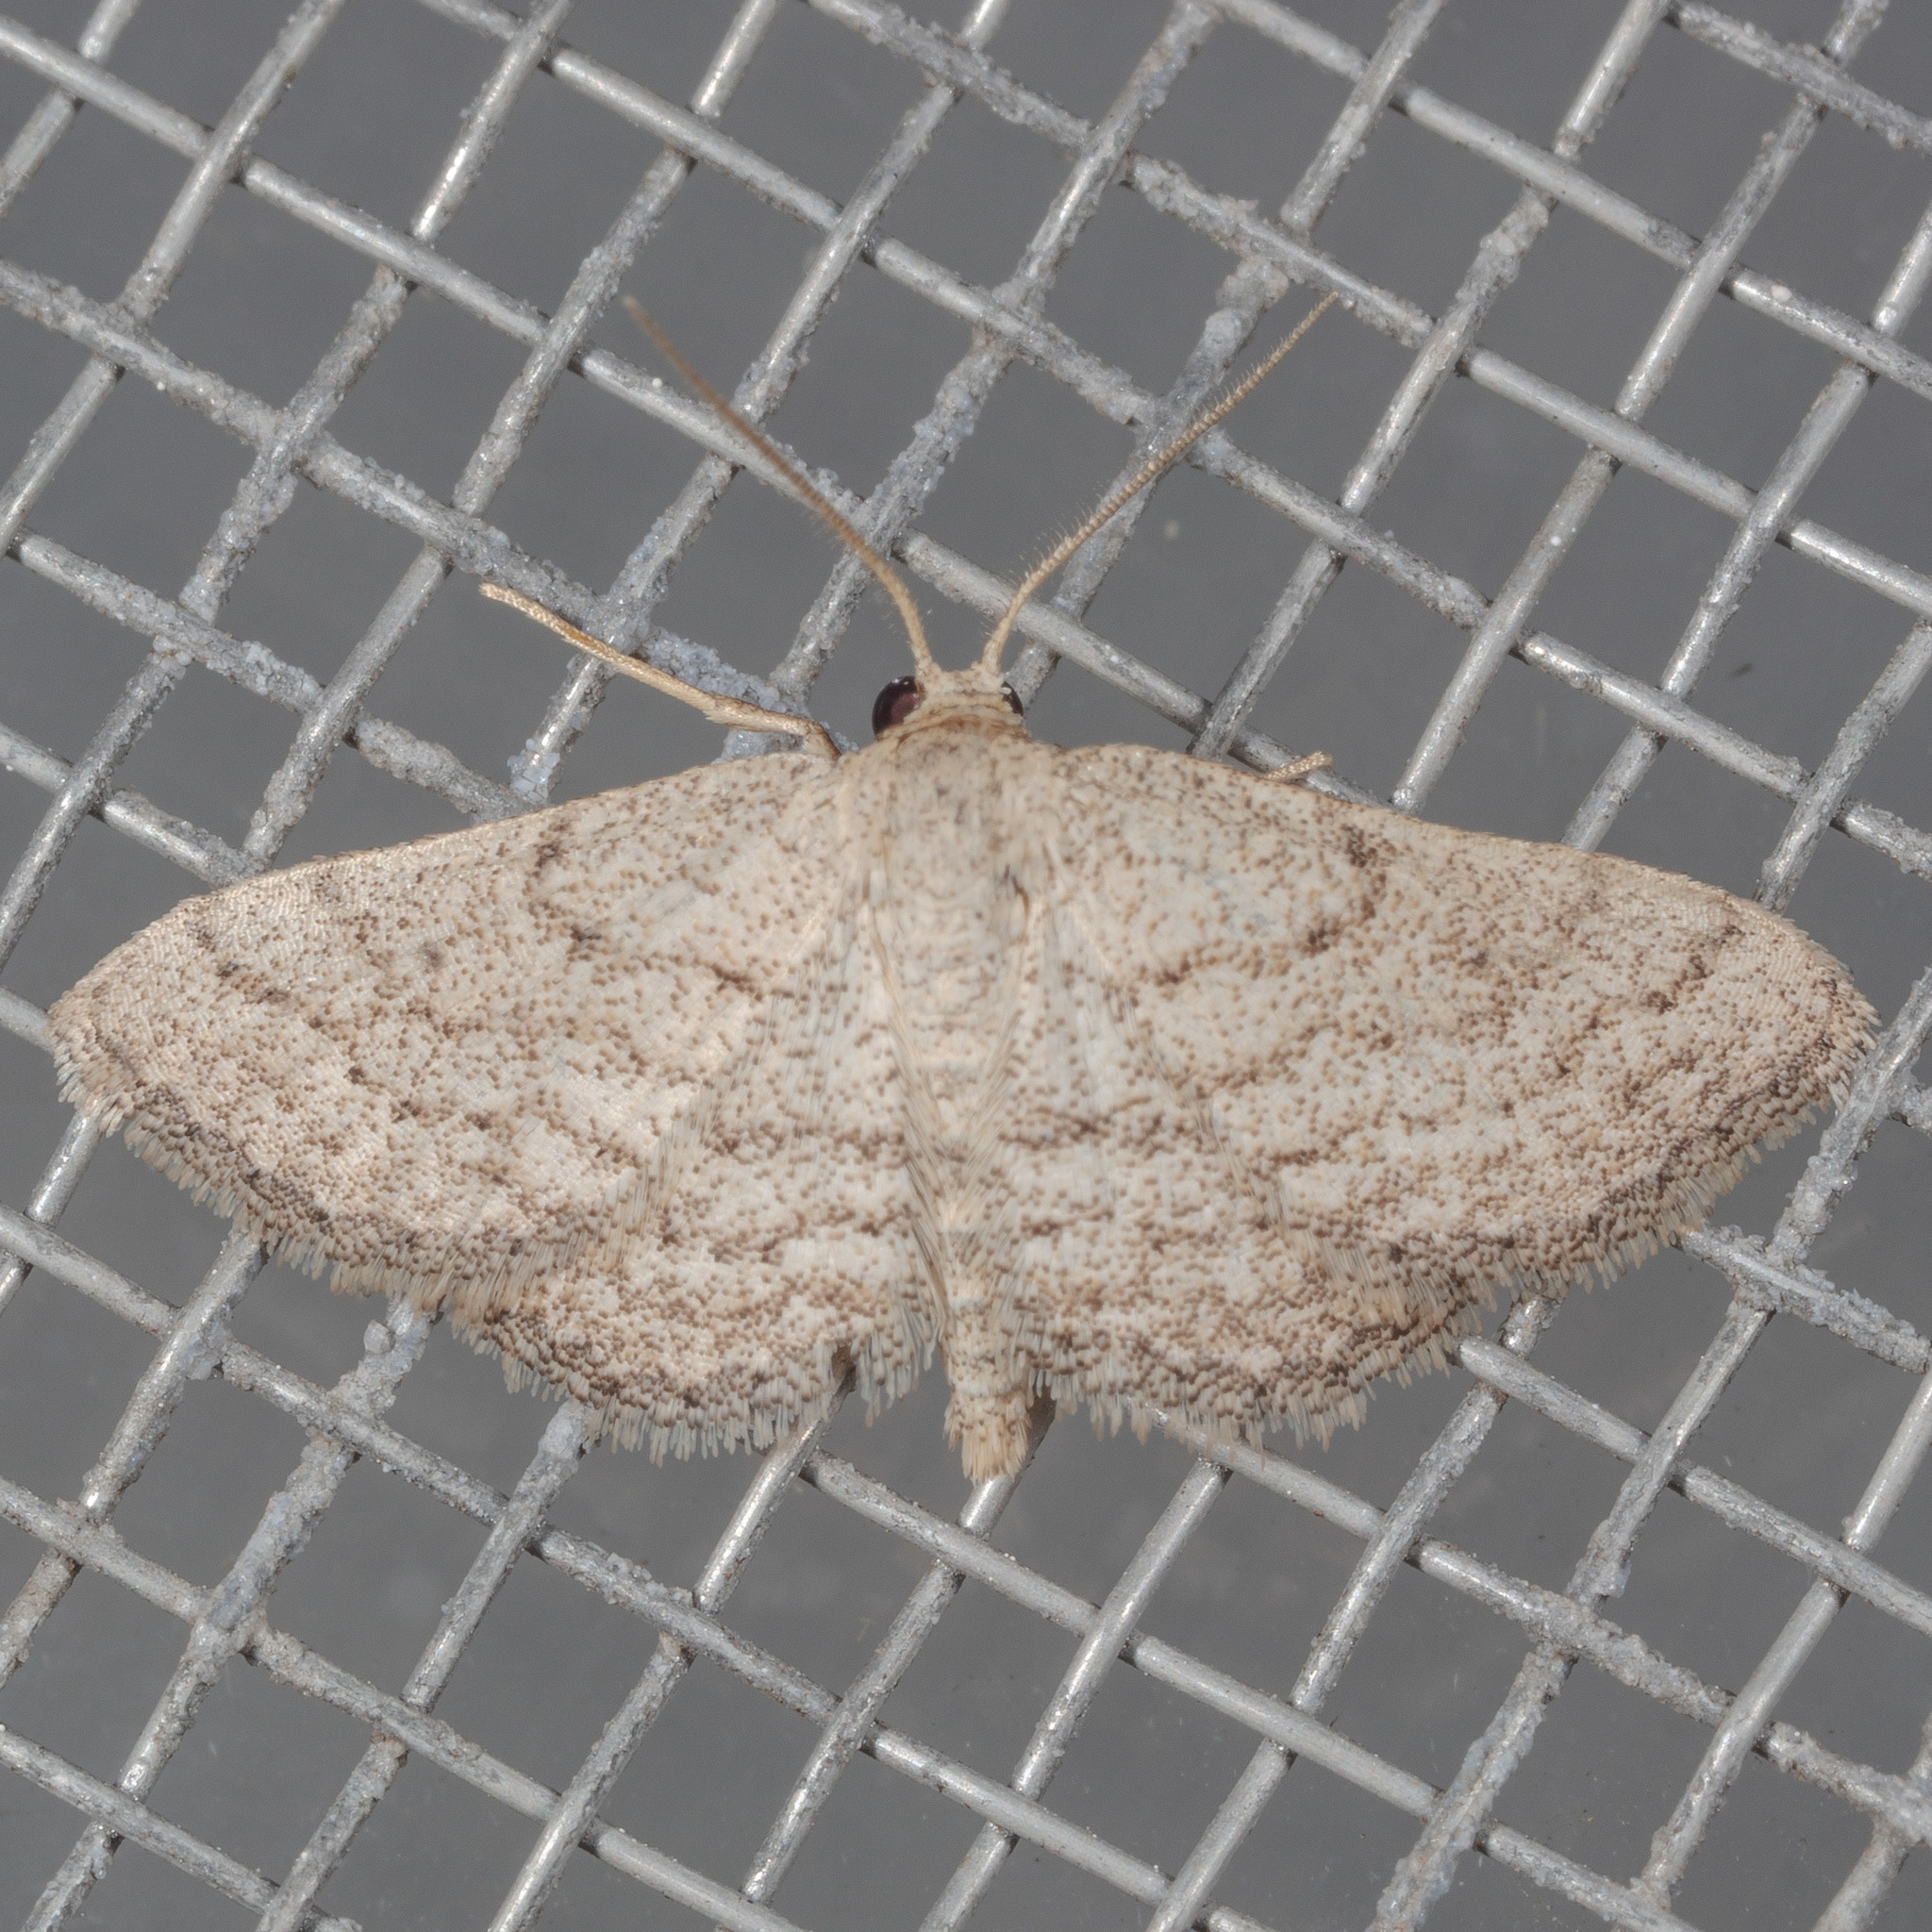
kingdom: Animalia
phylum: Arthropoda
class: Insecta
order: Lepidoptera
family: Geometridae
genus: Lobocleta
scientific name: Lobocleta ossularia
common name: Drab brown wave
